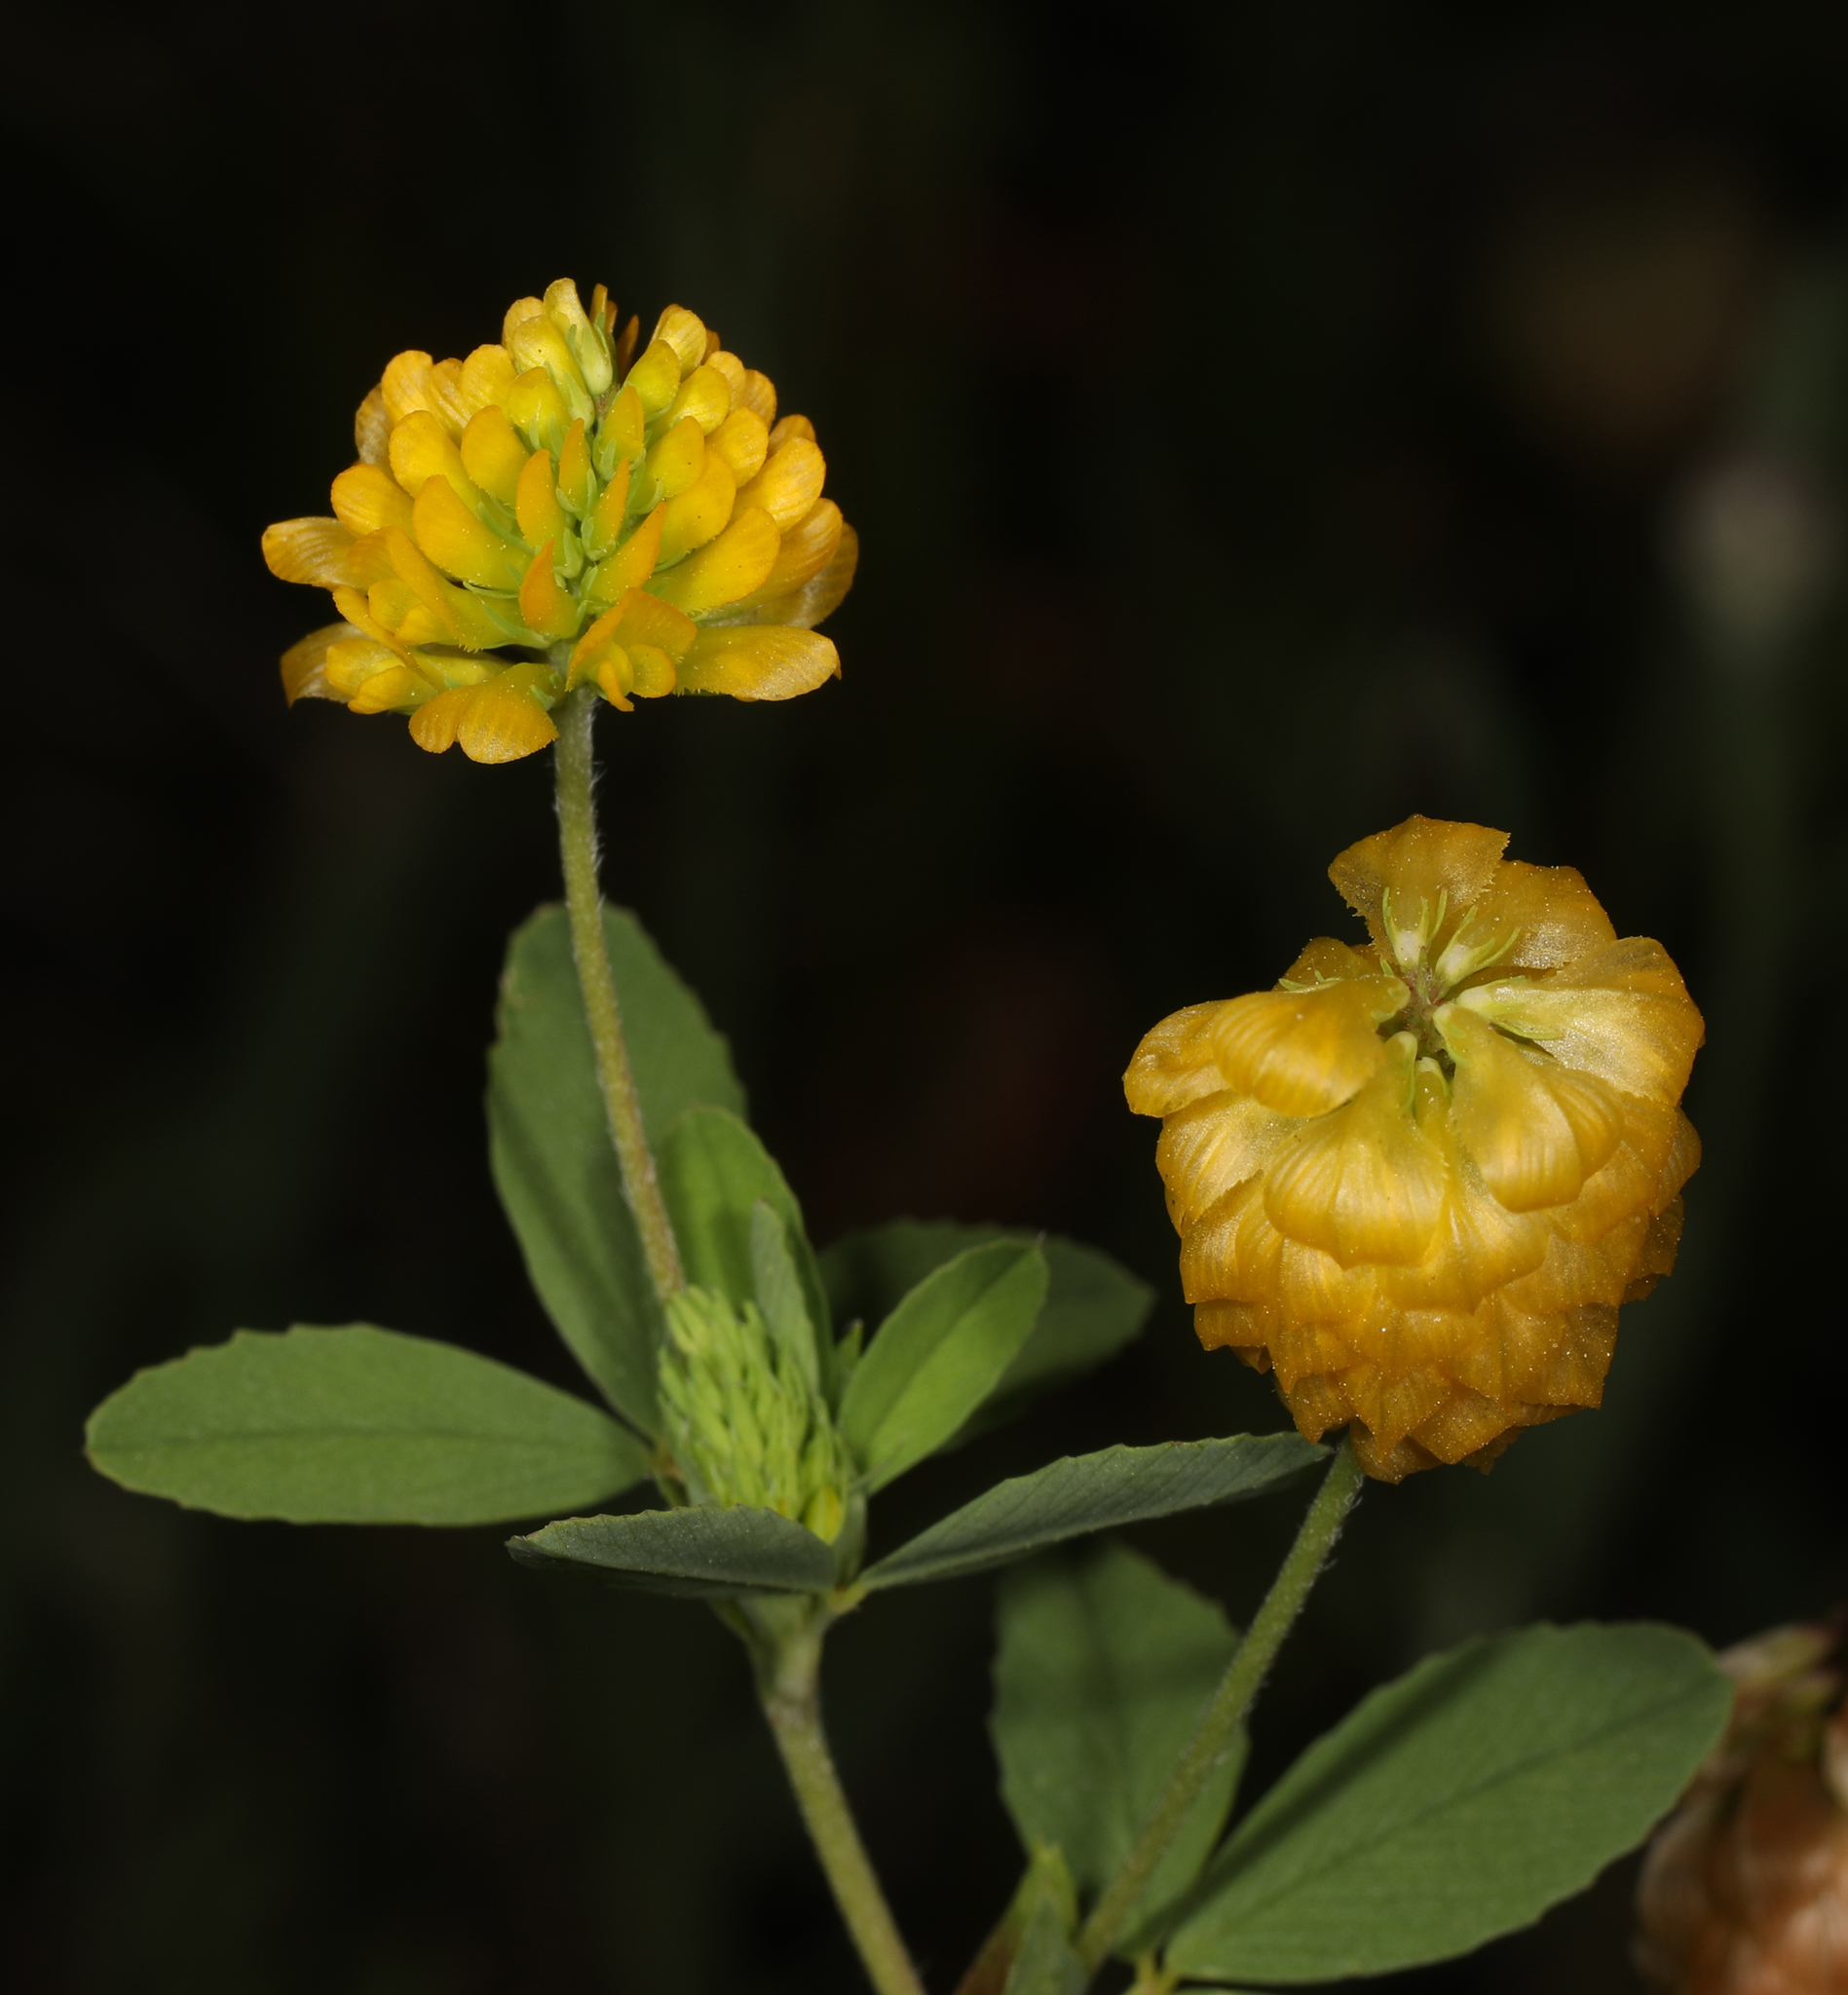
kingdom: Plantae
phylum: Tracheophyta
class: Magnoliopsida
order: Fabales
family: Fabaceae
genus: Trifolium
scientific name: Trifolium aureum
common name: Golden clover
